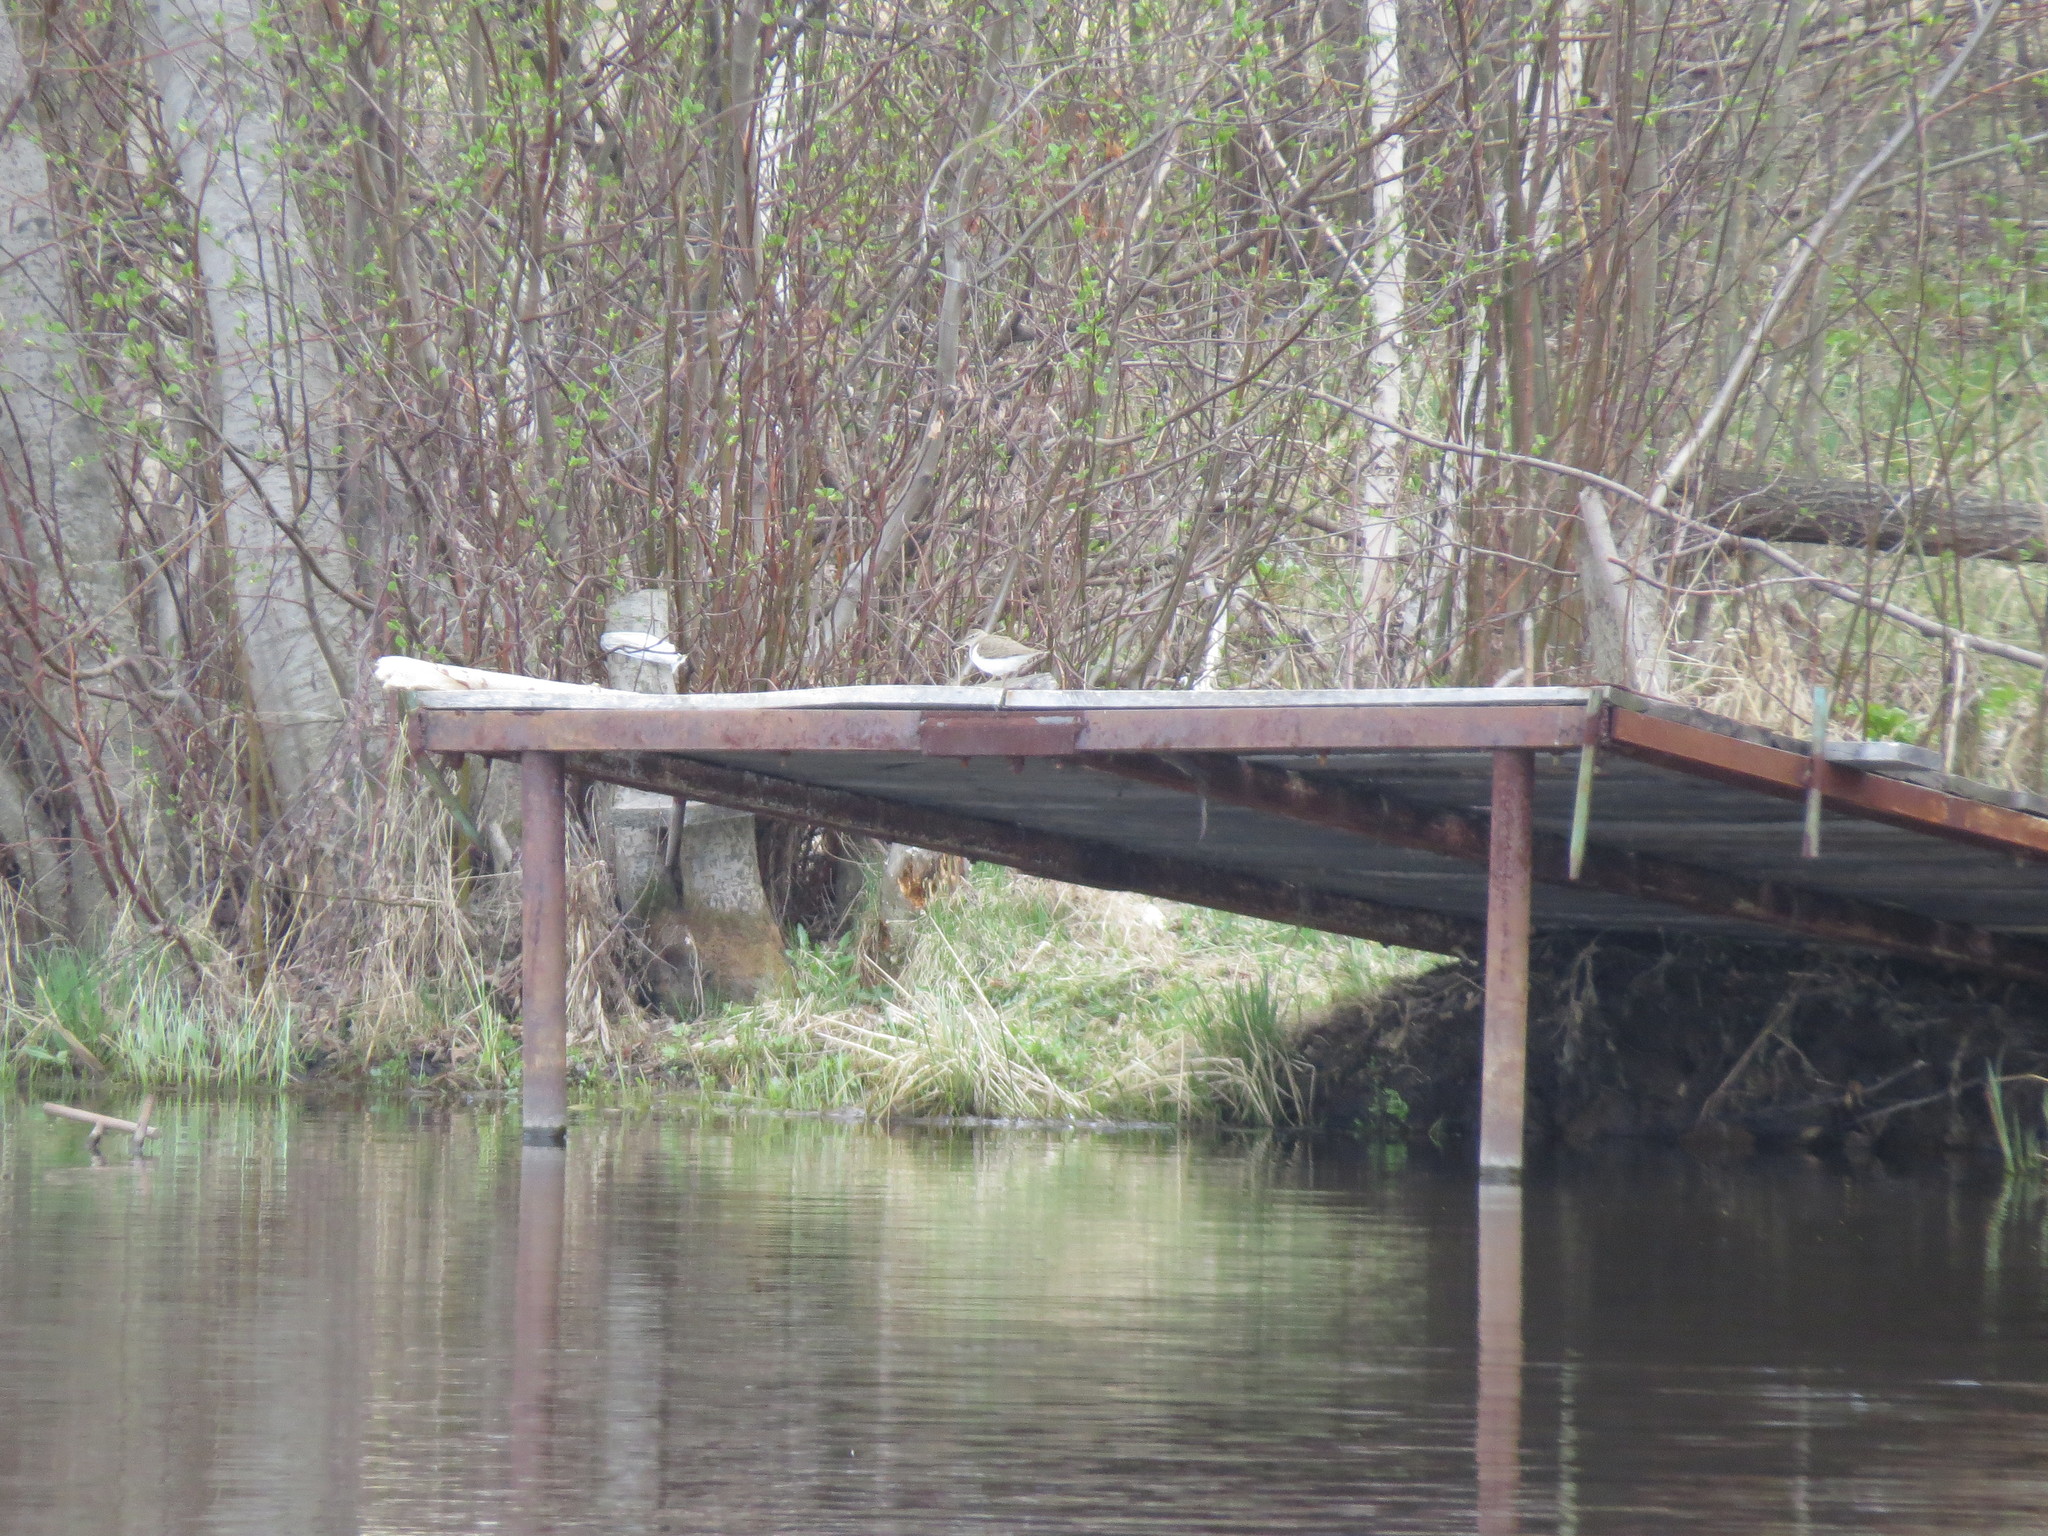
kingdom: Animalia
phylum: Chordata
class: Aves
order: Charadriiformes
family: Scolopacidae
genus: Actitis
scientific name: Actitis hypoleucos
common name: Common sandpiper
